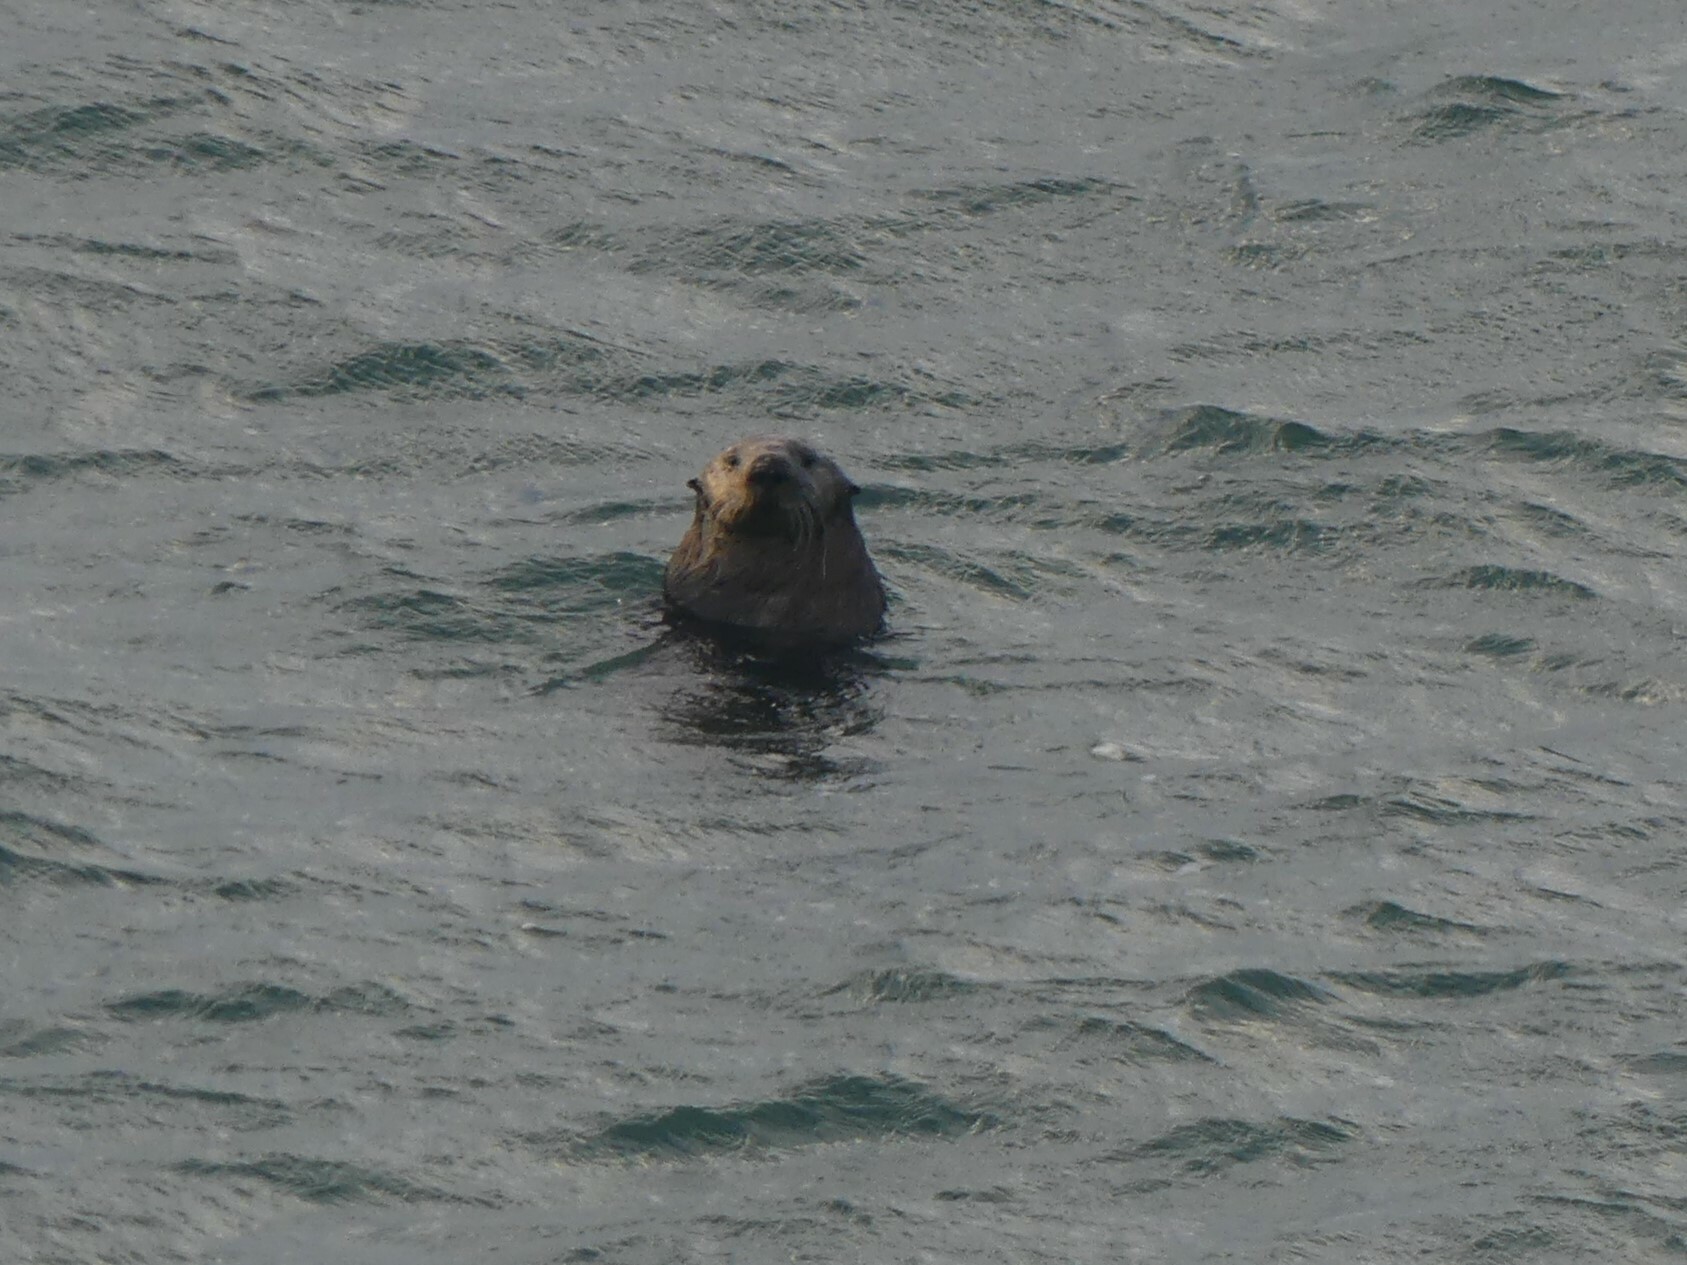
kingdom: Animalia
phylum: Chordata
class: Mammalia
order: Carnivora
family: Mustelidae
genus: Enhydra
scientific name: Enhydra lutris
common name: Sea otter
